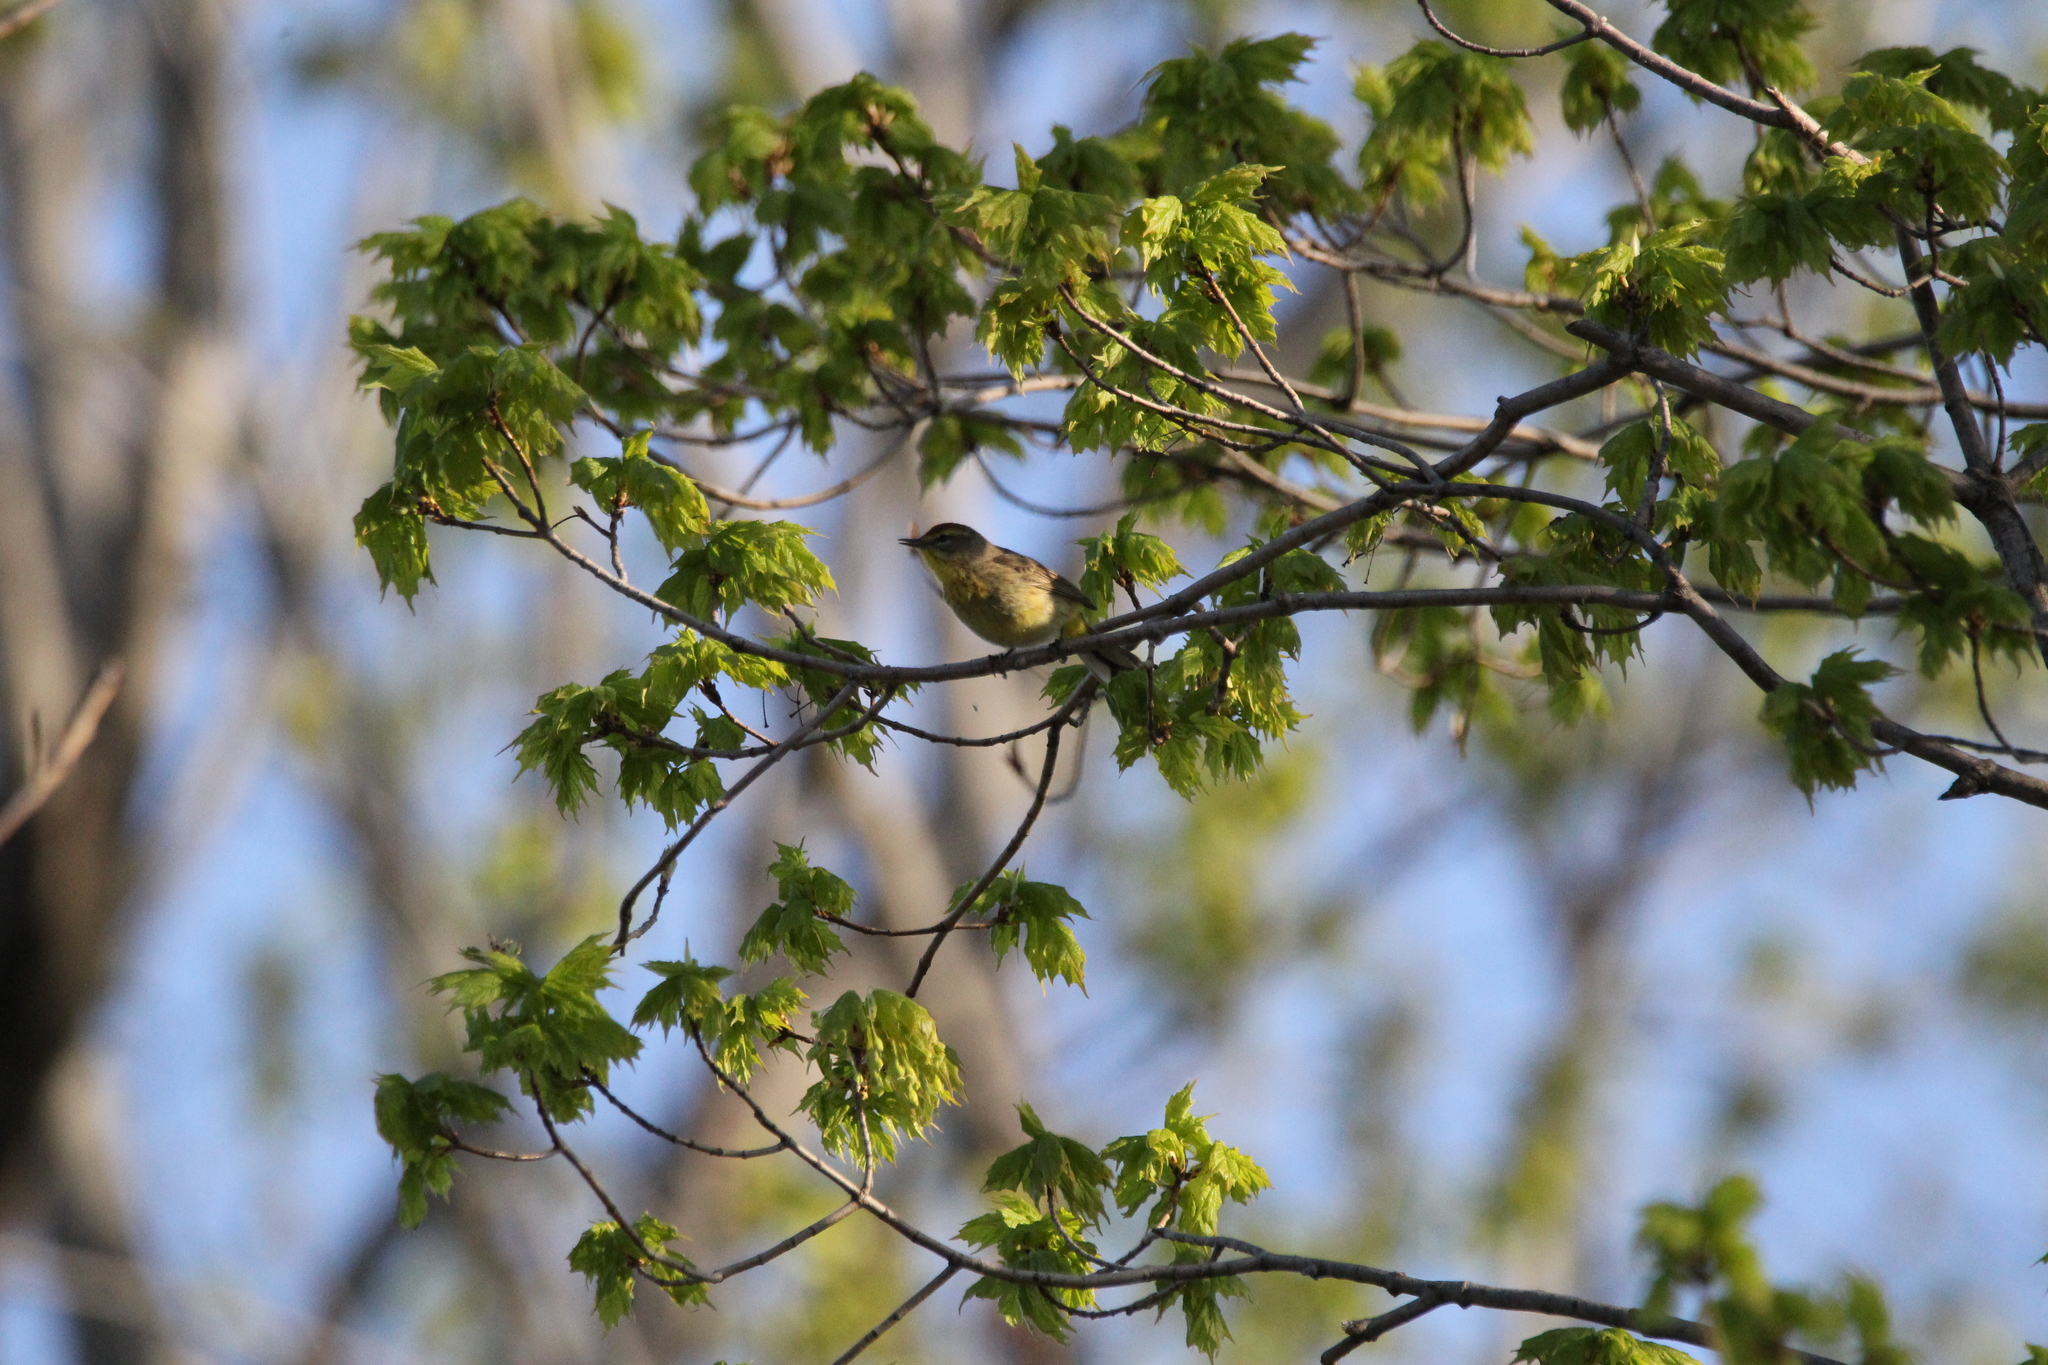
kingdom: Animalia
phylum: Chordata
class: Aves
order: Passeriformes
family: Parulidae
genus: Setophaga
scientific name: Setophaga palmarum
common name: Palm warbler
